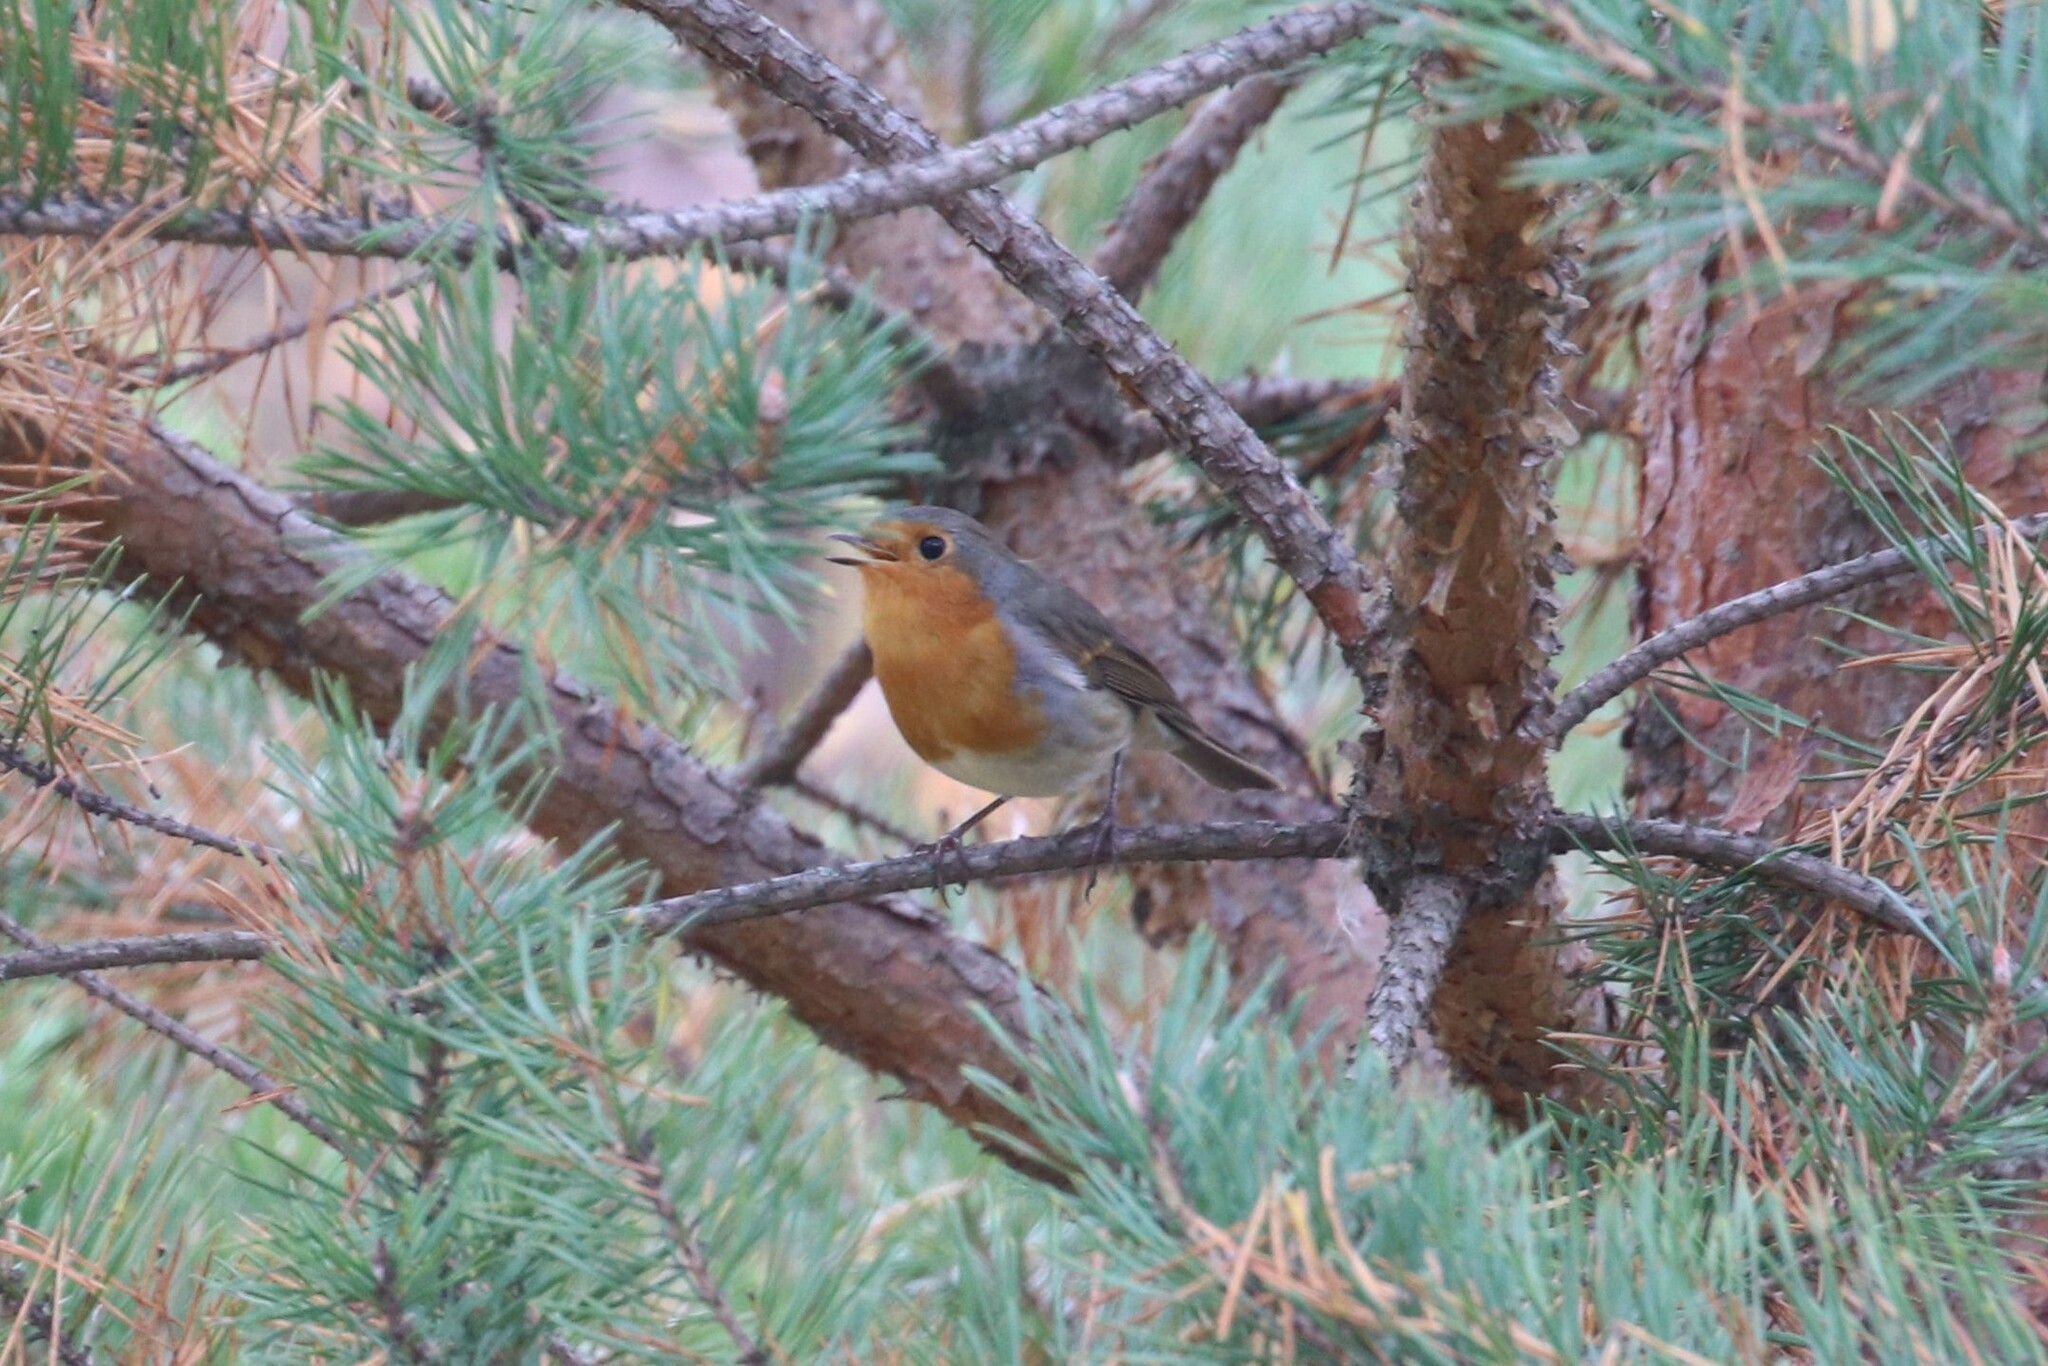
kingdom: Animalia
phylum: Chordata
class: Aves
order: Passeriformes
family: Muscicapidae
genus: Erithacus
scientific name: Erithacus rubecula
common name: European robin
